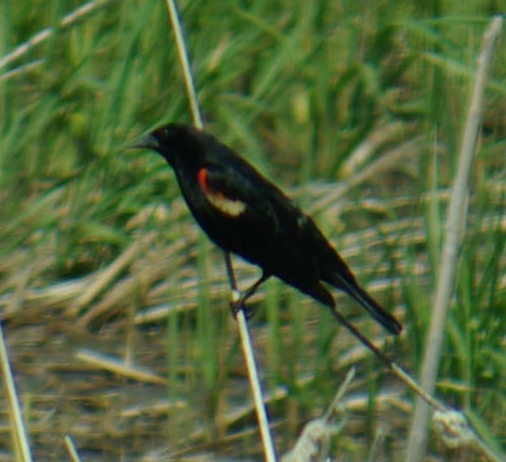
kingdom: Animalia
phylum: Chordata
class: Aves
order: Passeriformes
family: Icteridae
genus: Agelaius
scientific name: Agelaius phoeniceus
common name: Red-winged blackbird
